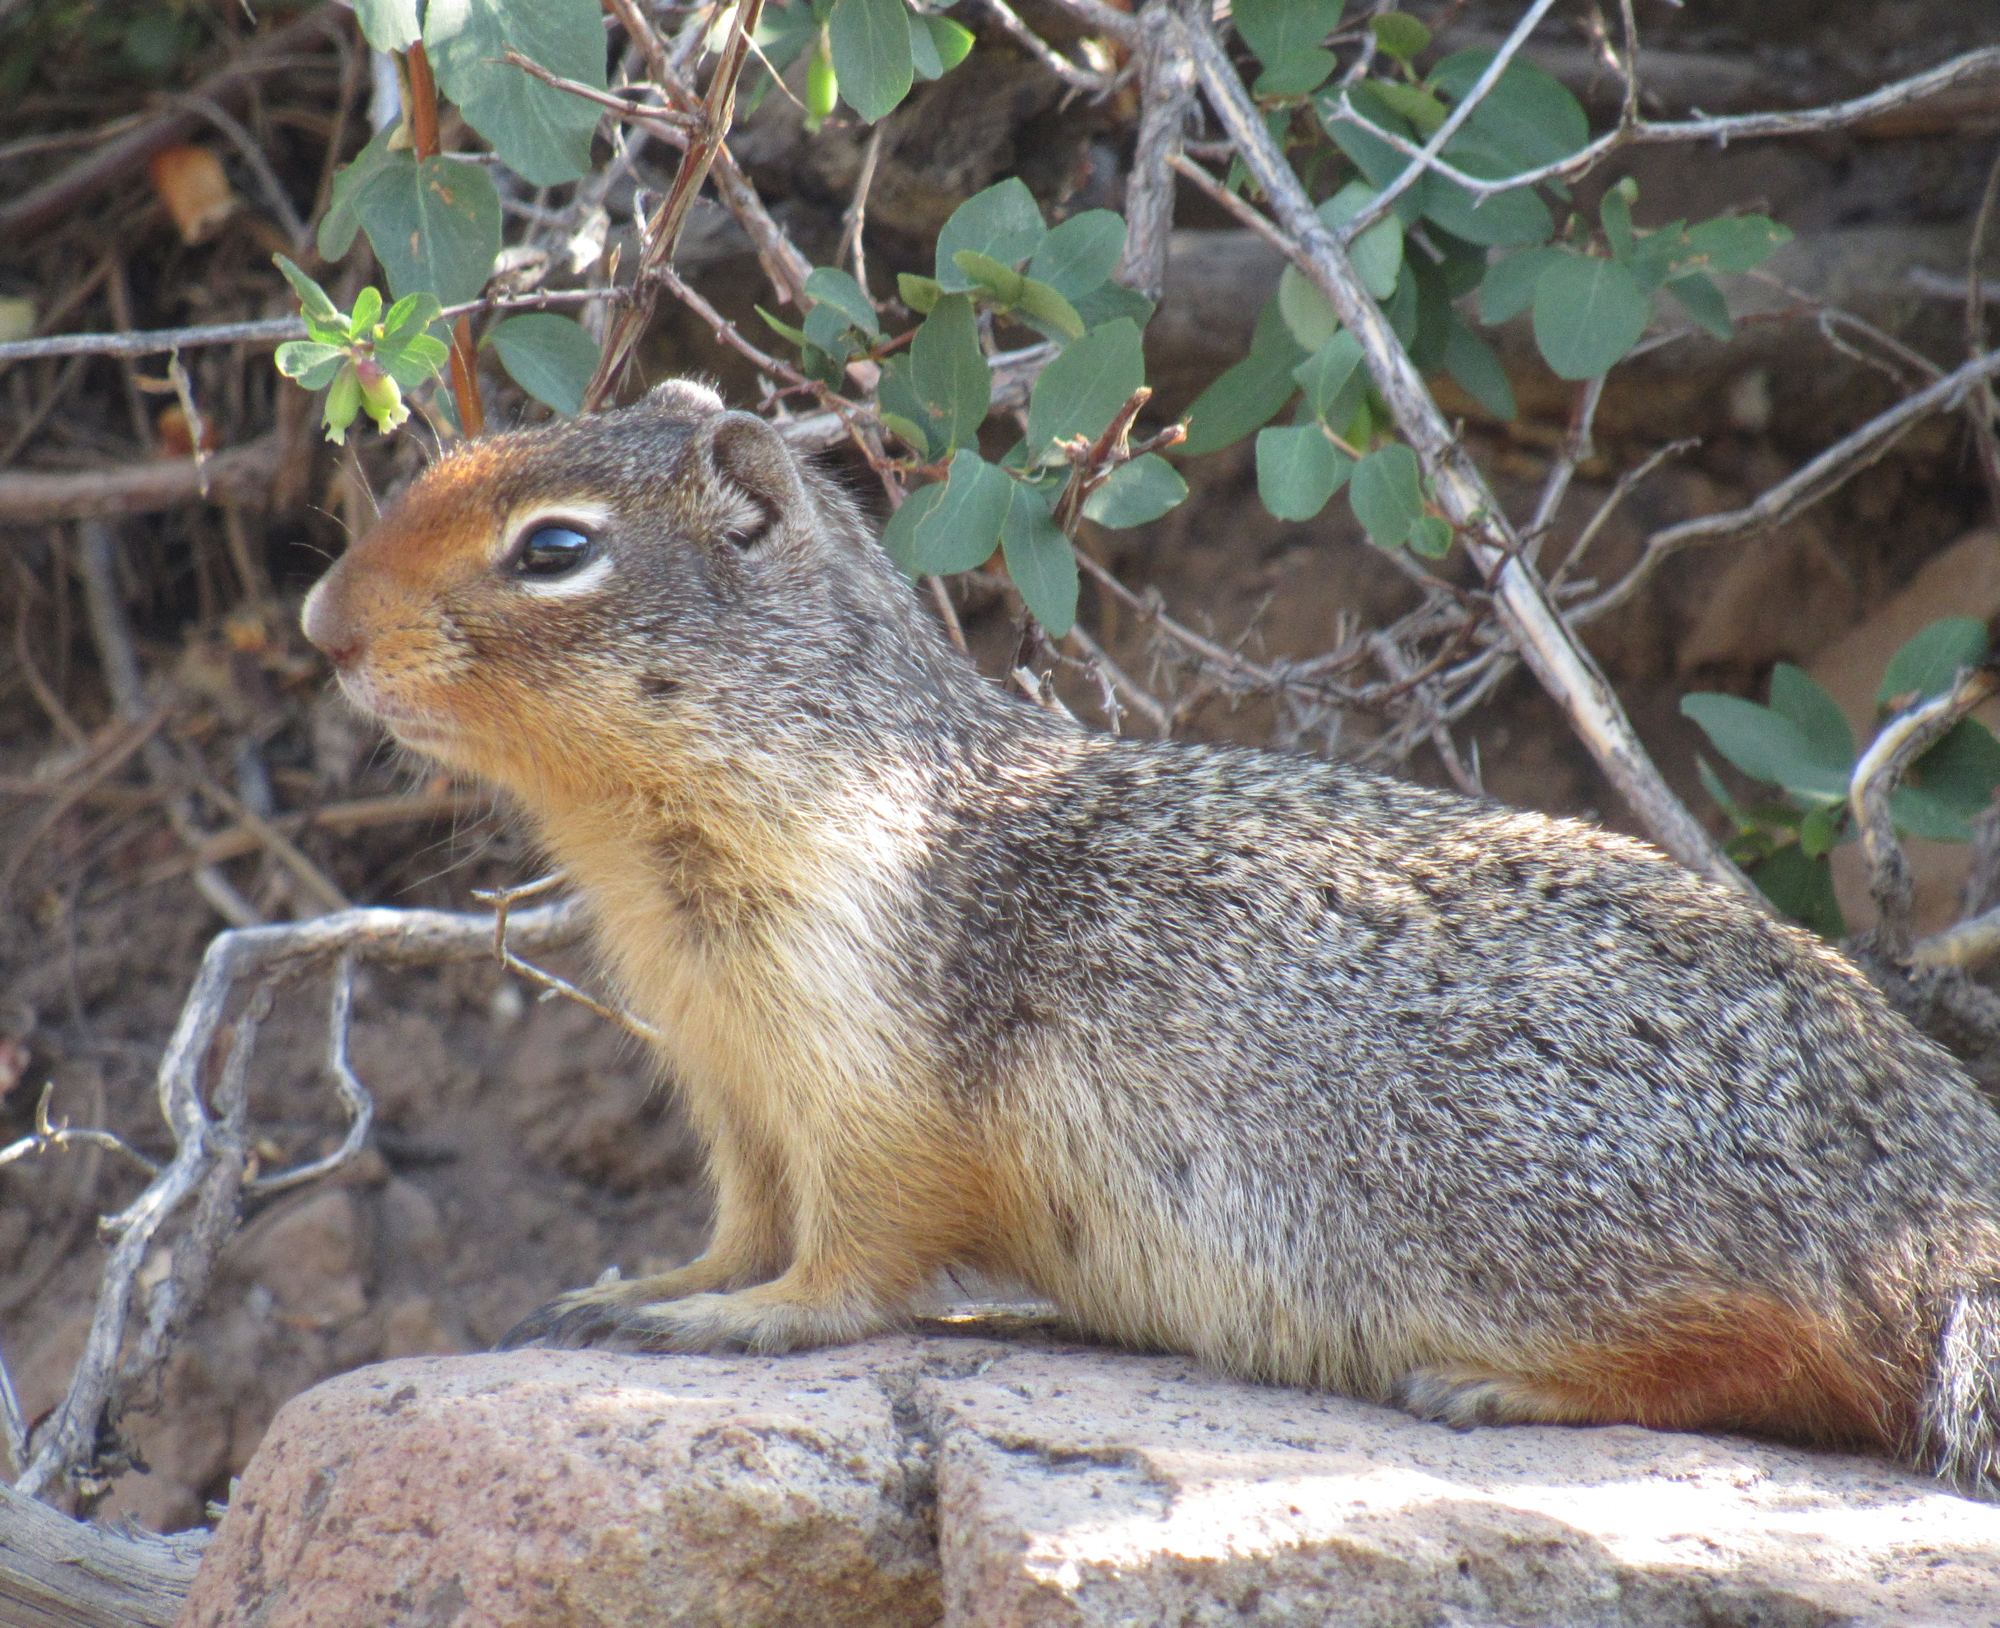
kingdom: Animalia
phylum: Chordata
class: Mammalia
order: Rodentia
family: Sciuridae
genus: Urocitellus
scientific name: Urocitellus columbianus
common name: Columbian ground squirrel
